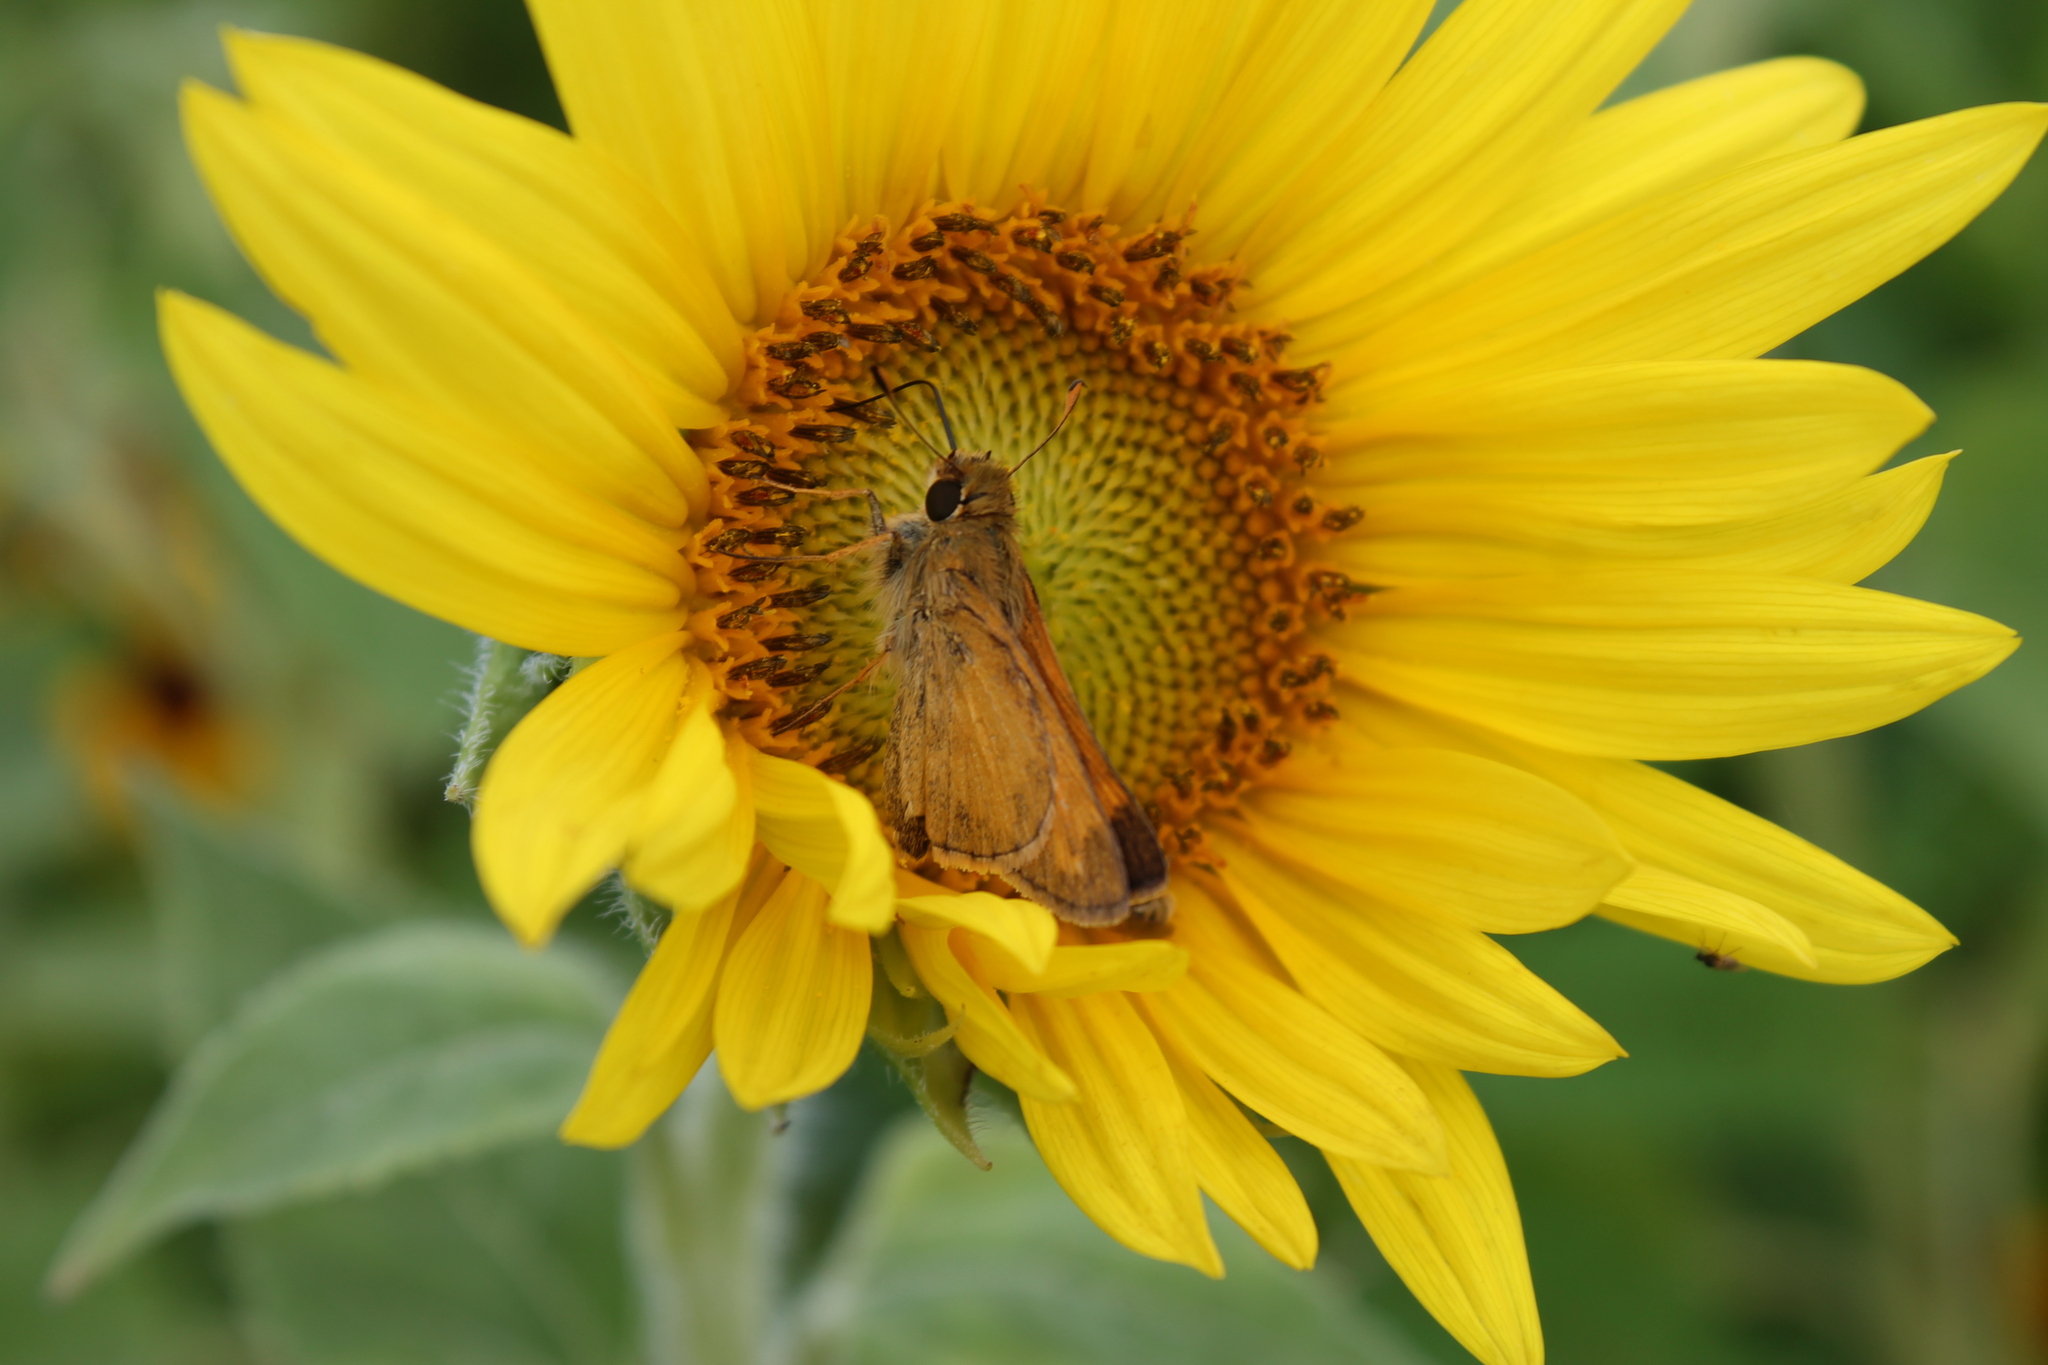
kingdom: Animalia
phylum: Arthropoda
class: Insecta
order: Lepidoptera
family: Hesperiidae
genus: Atalopedes
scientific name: Atalopedes
